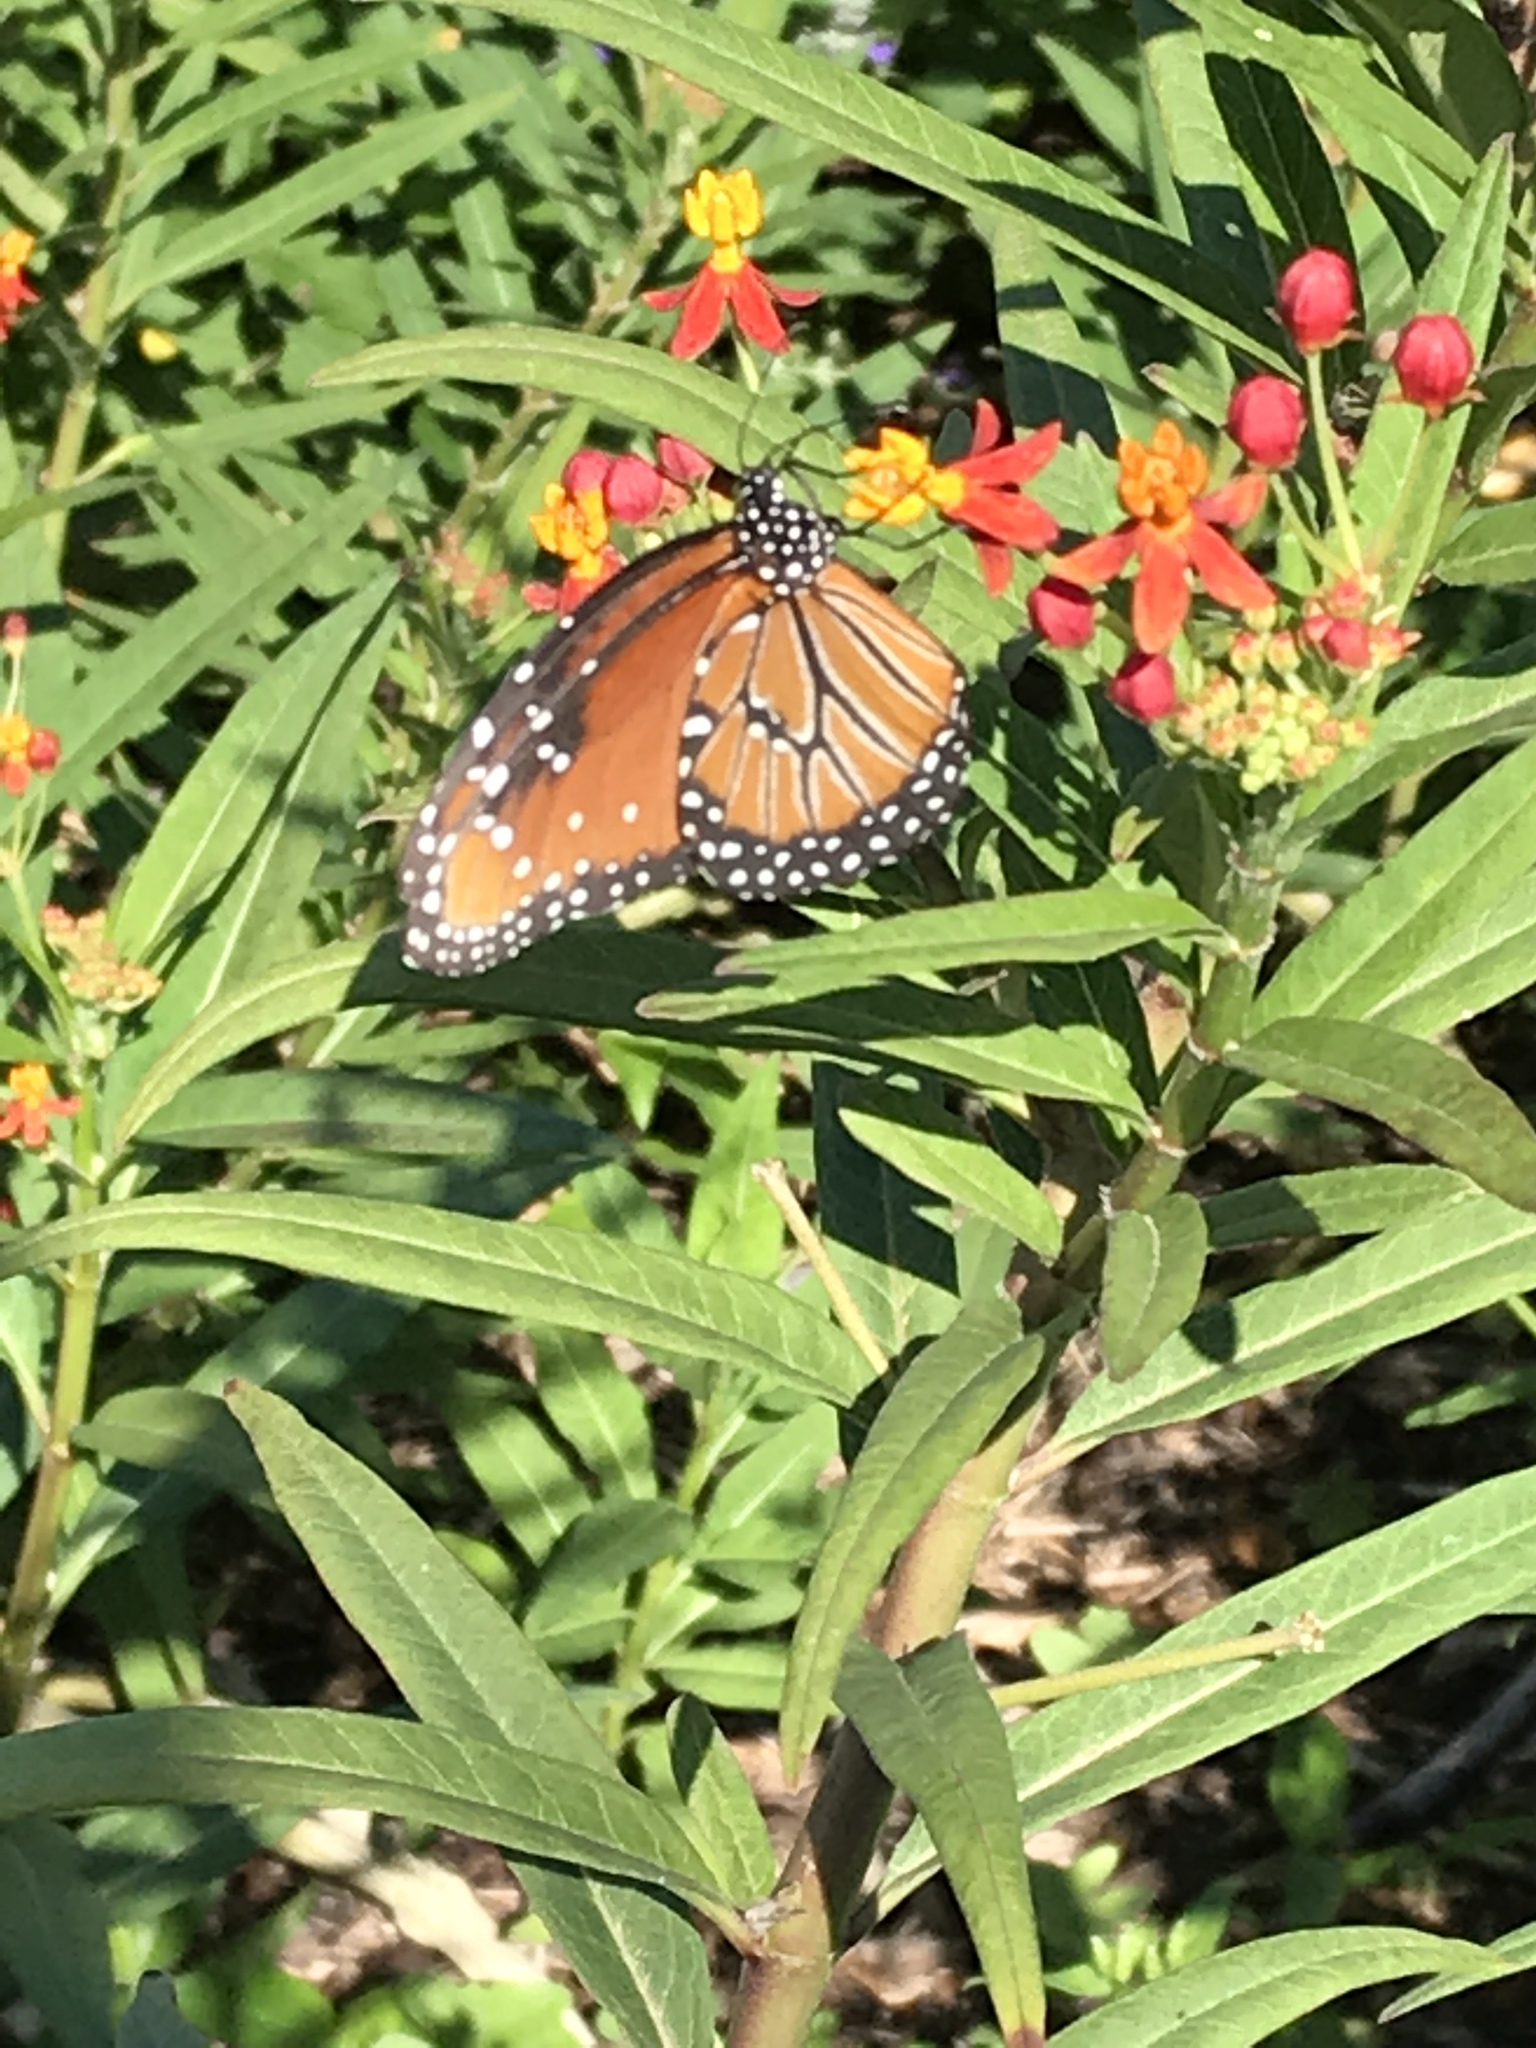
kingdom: Animalia
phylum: Arthropoda
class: Insecta
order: Lepidoptera
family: Nymphalidae
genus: Danaus
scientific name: Danaus gilippus
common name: Queen
